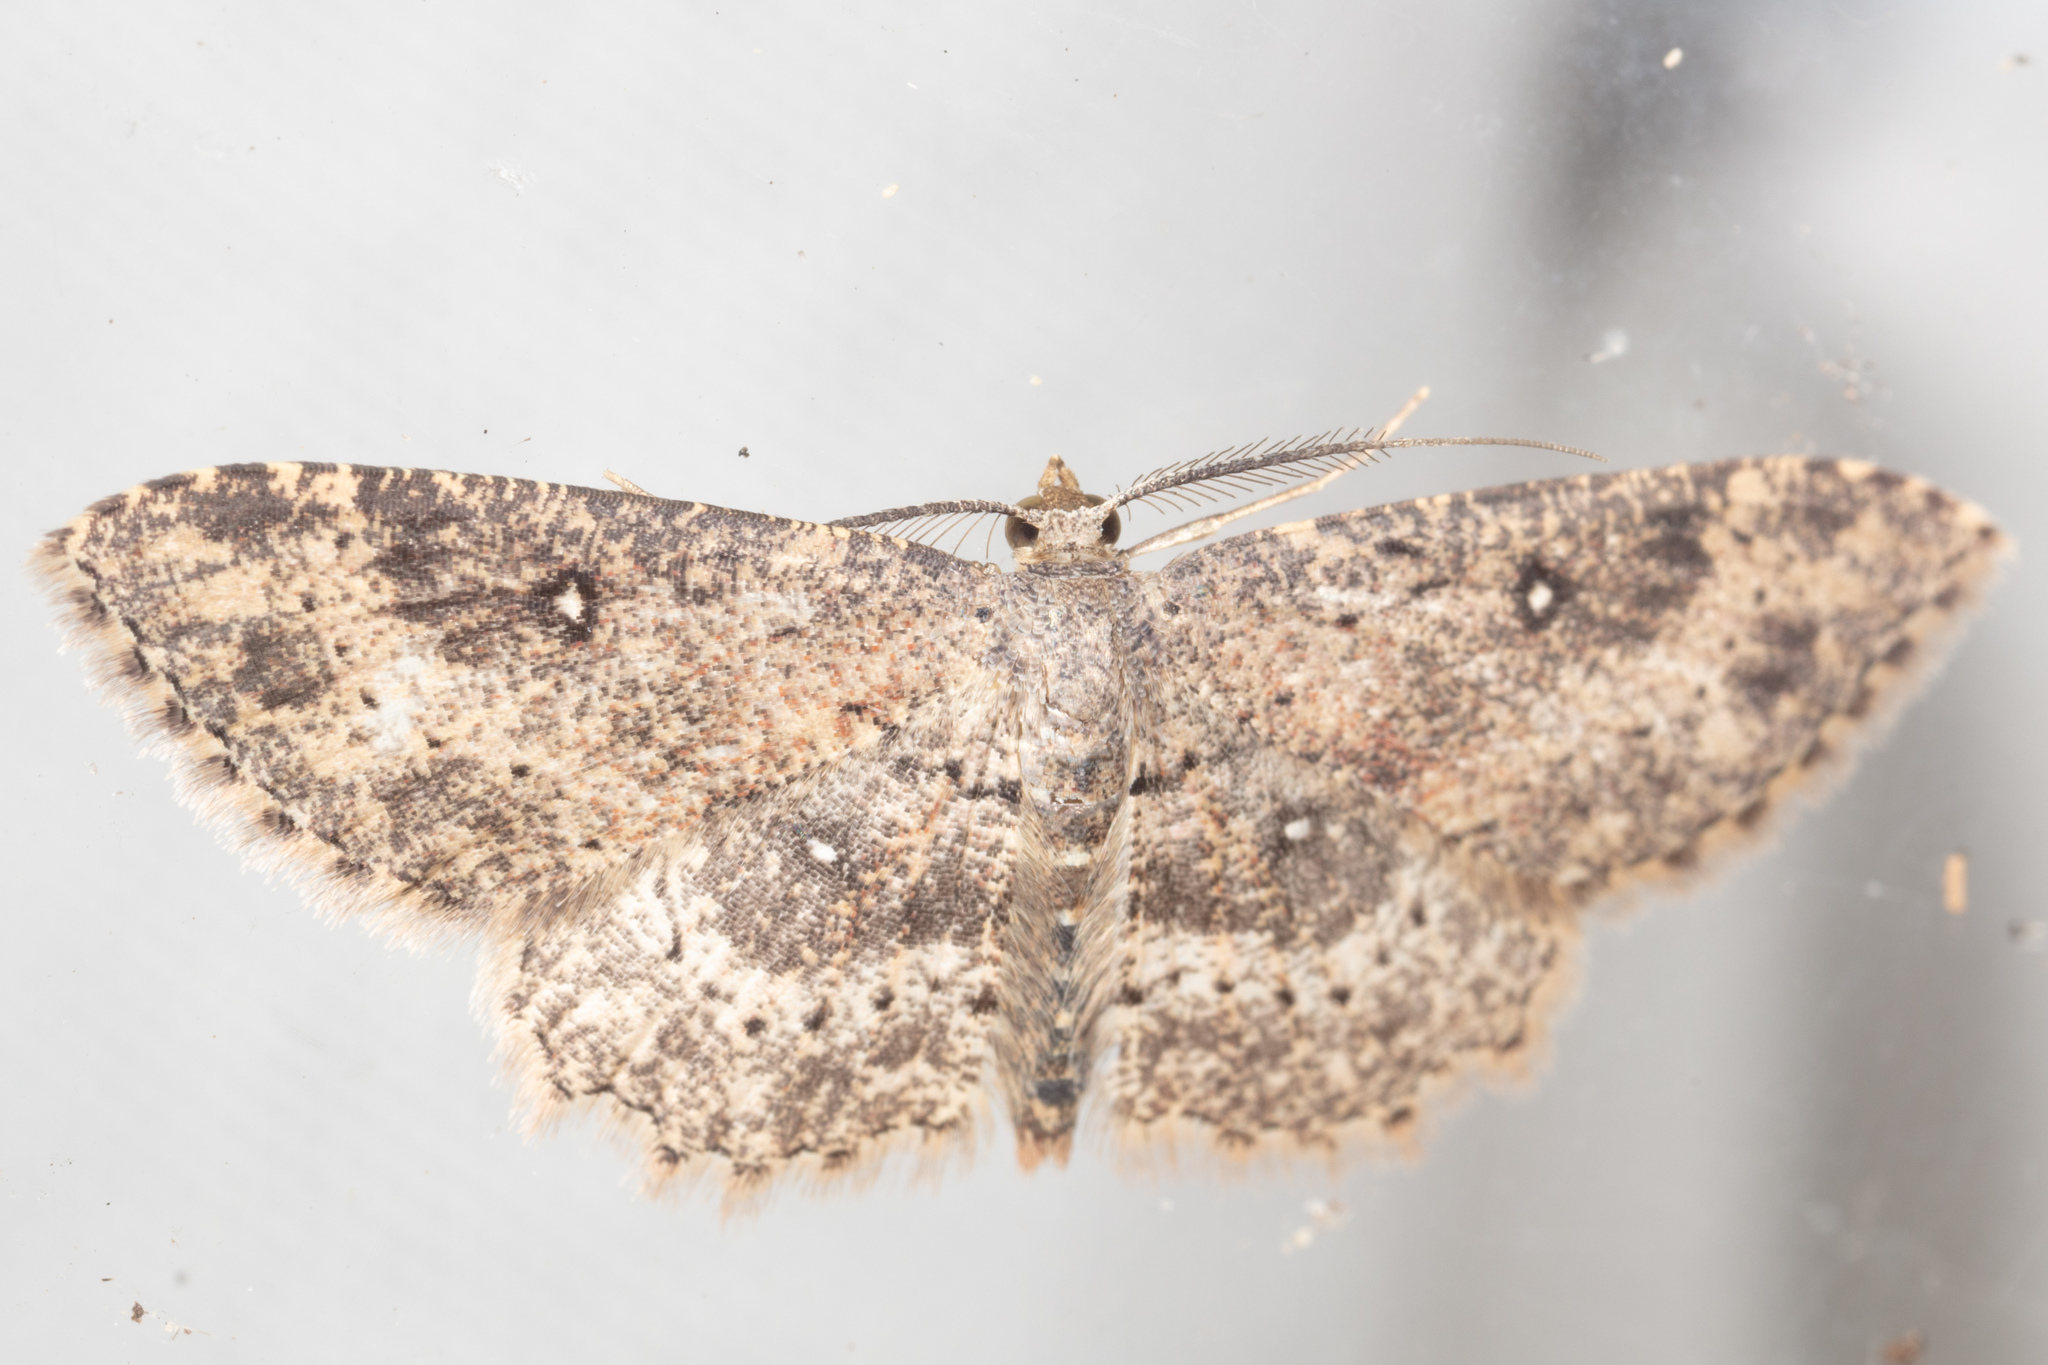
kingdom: Animalia
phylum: Arthropoda
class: Insecta
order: Lepidoptera
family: Geometridae
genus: Cyclophora
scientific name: Cyclophora nanaria
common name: Cankerworm
